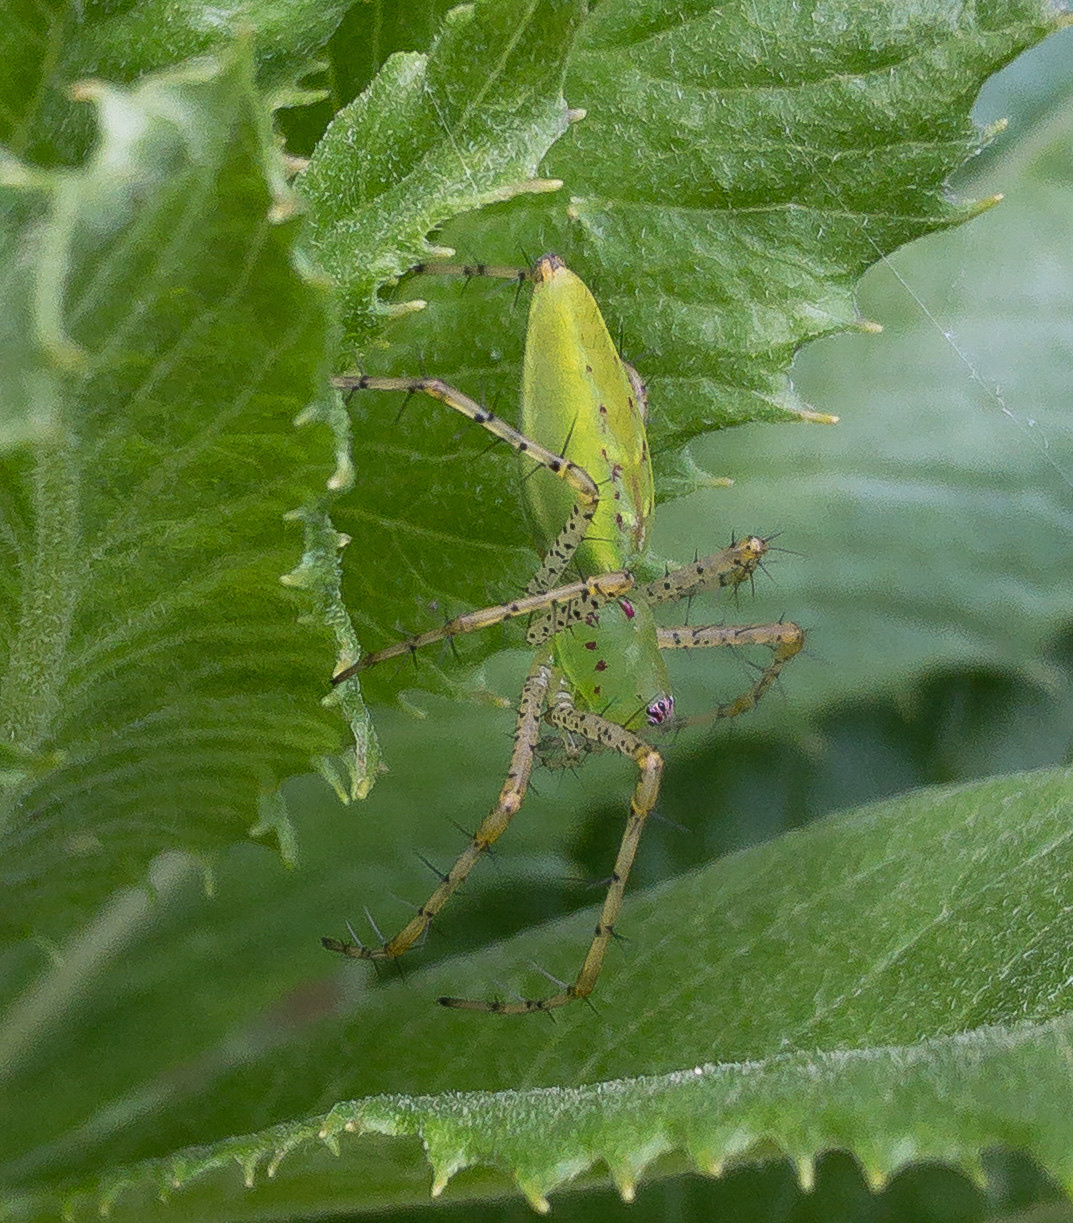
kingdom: Animalia
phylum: Arthropoda
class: Arachnida
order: Araneae
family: Oxyopidae
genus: Peucetia
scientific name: Peucetia viridans
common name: Lynx spiders
